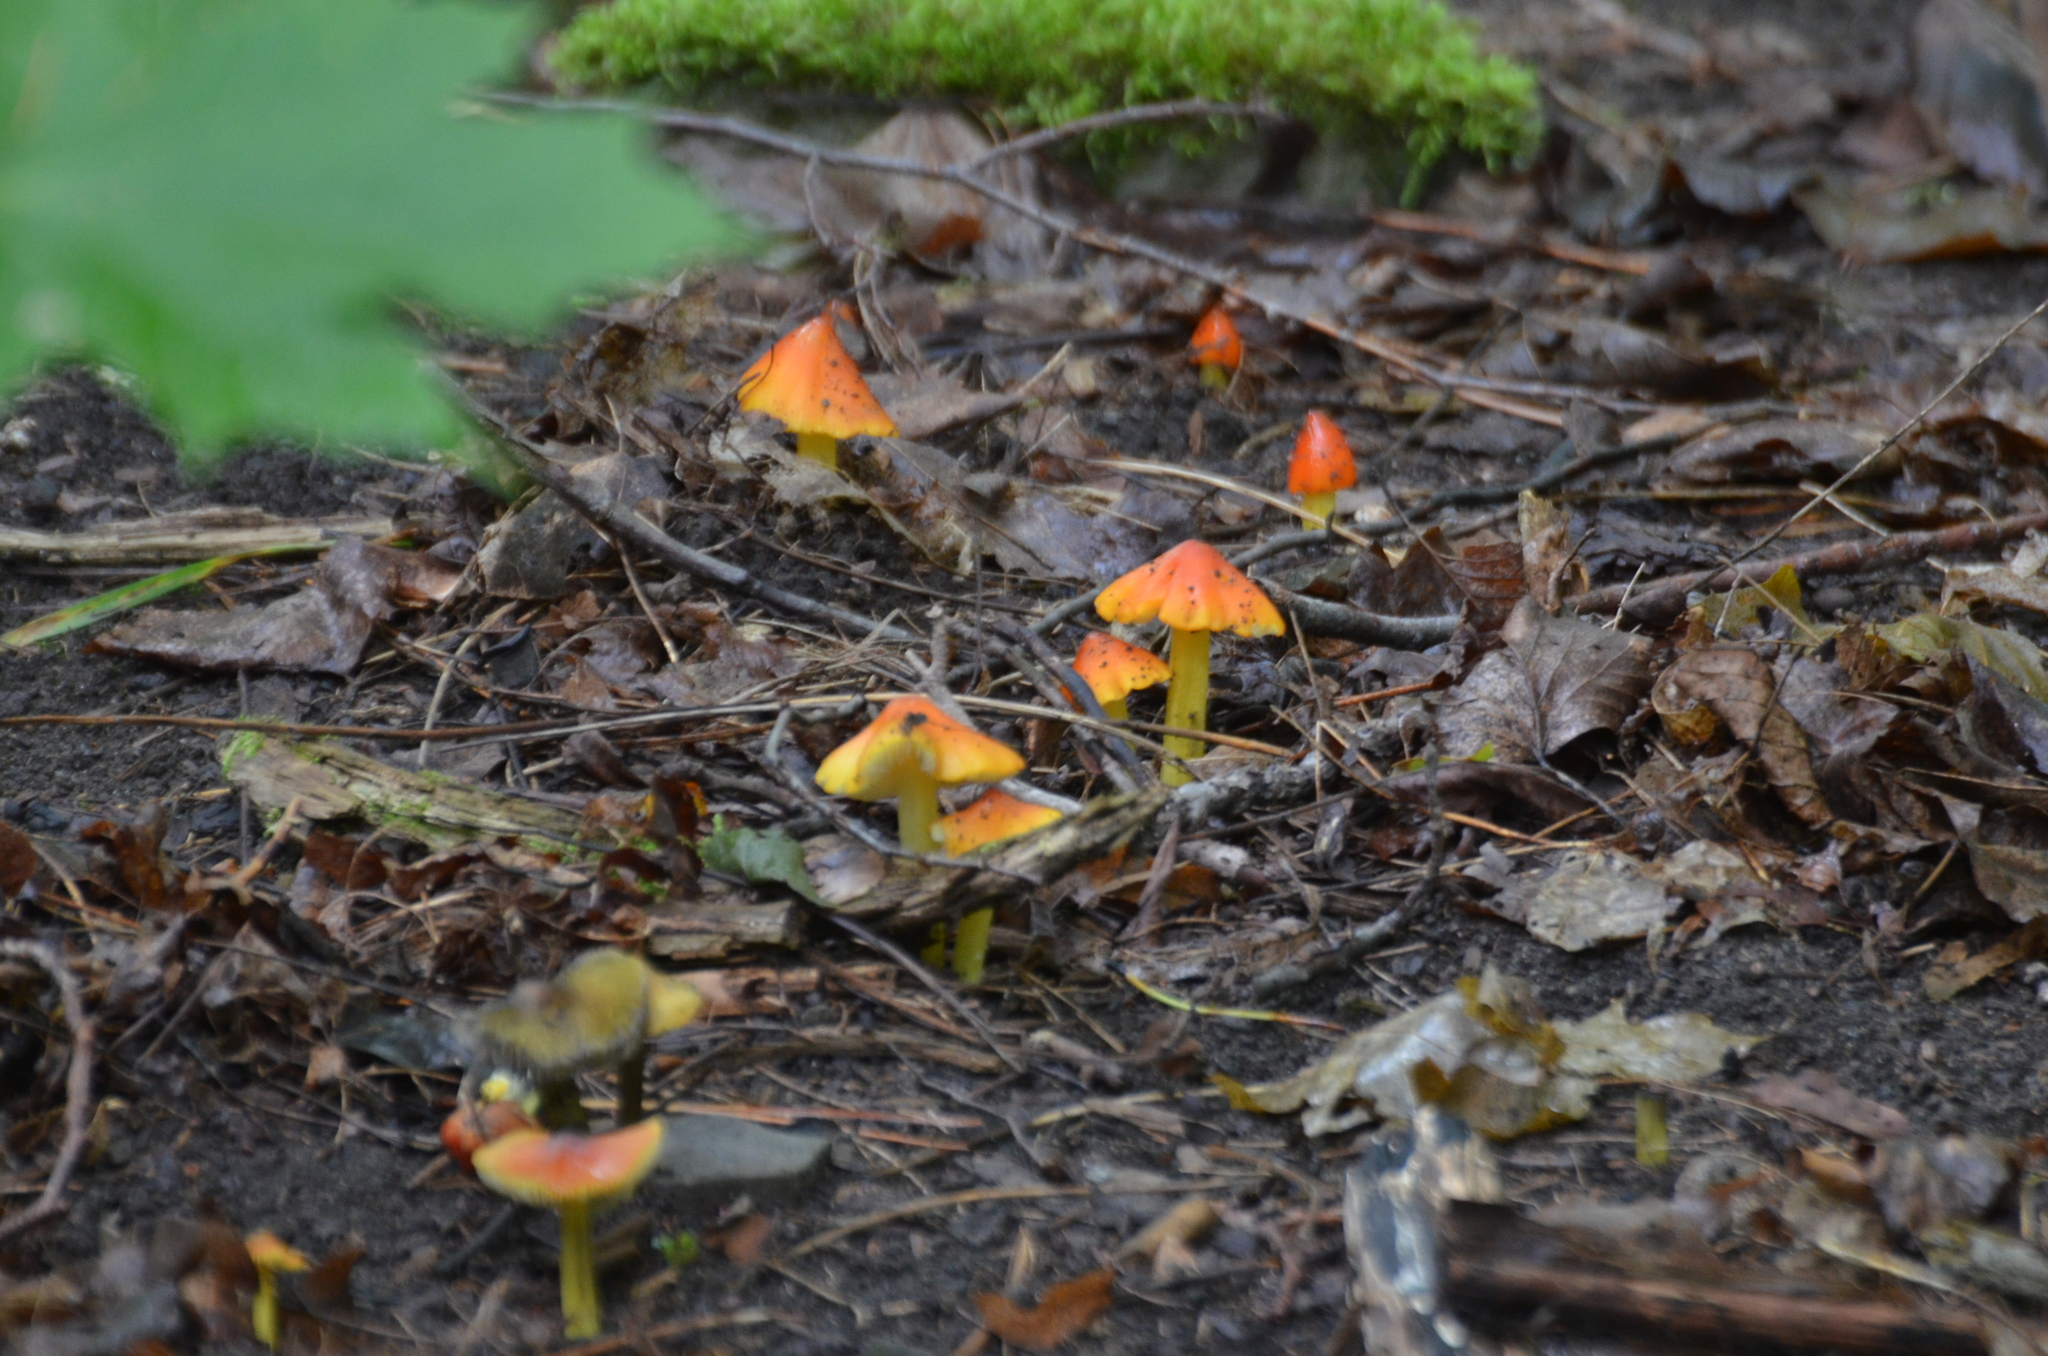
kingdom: Fungi
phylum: Basidiomycota
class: Agaricomycetes
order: Agaricales
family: Hygrophoraceae
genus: Hygrocybe
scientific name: Hygrocybe conica
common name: Blackening wax-cap
